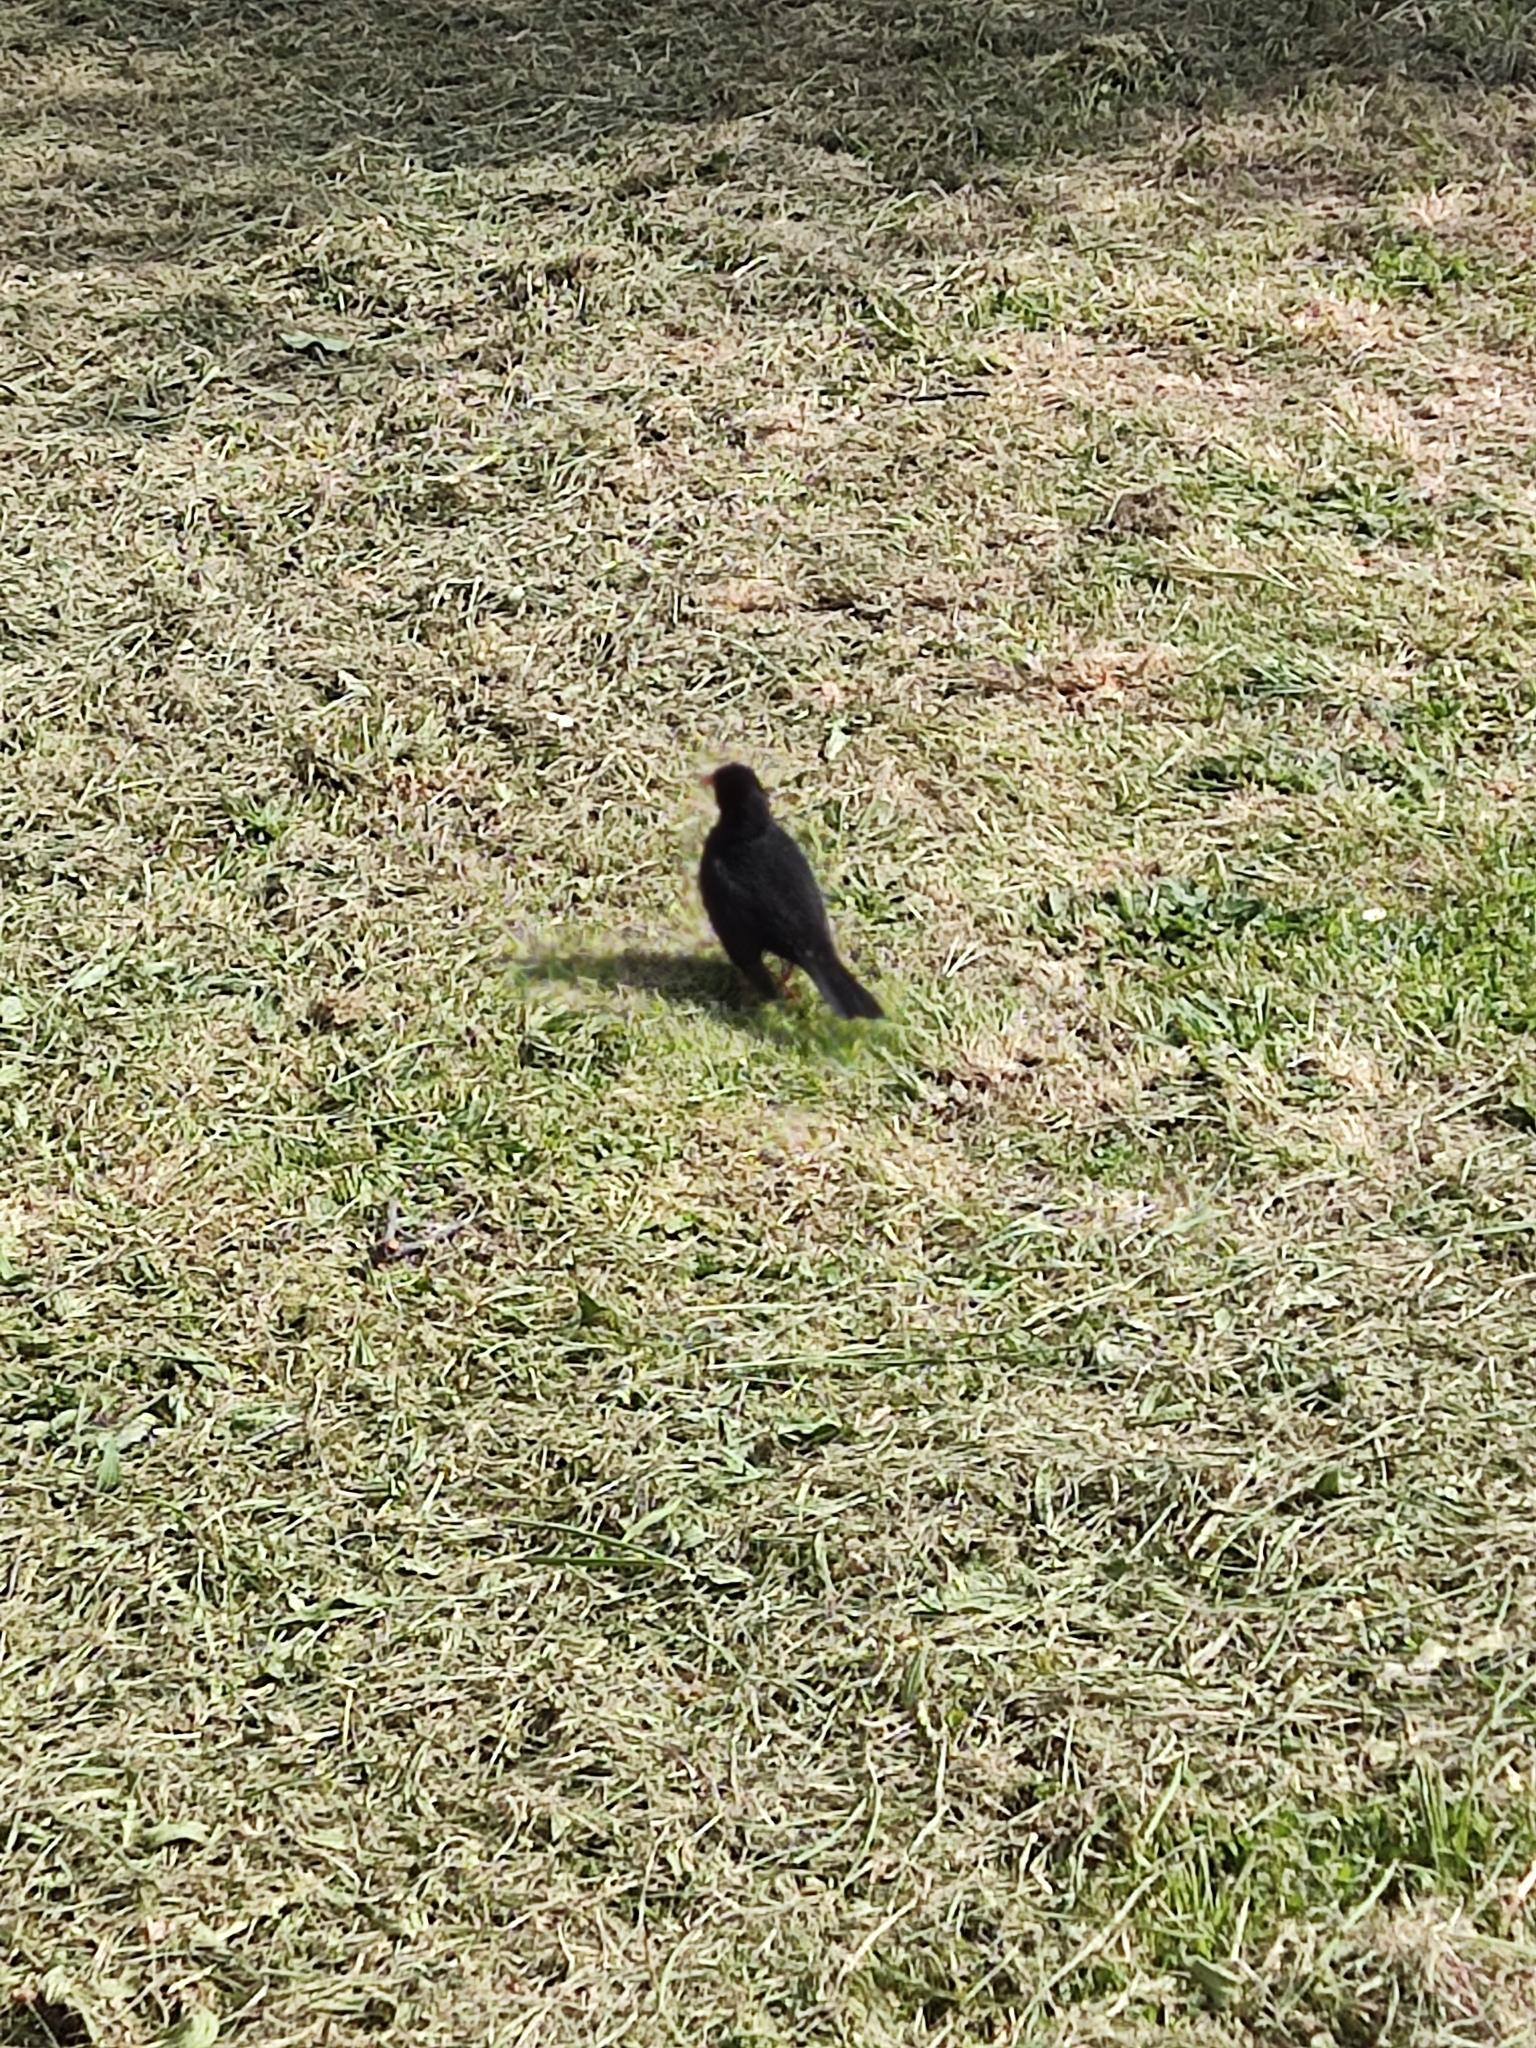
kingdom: Animalia
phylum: Chordata
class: Aves
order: Passeriformes
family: Turdidae
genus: Turdus
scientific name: Turdus merula
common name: Common blackbird
